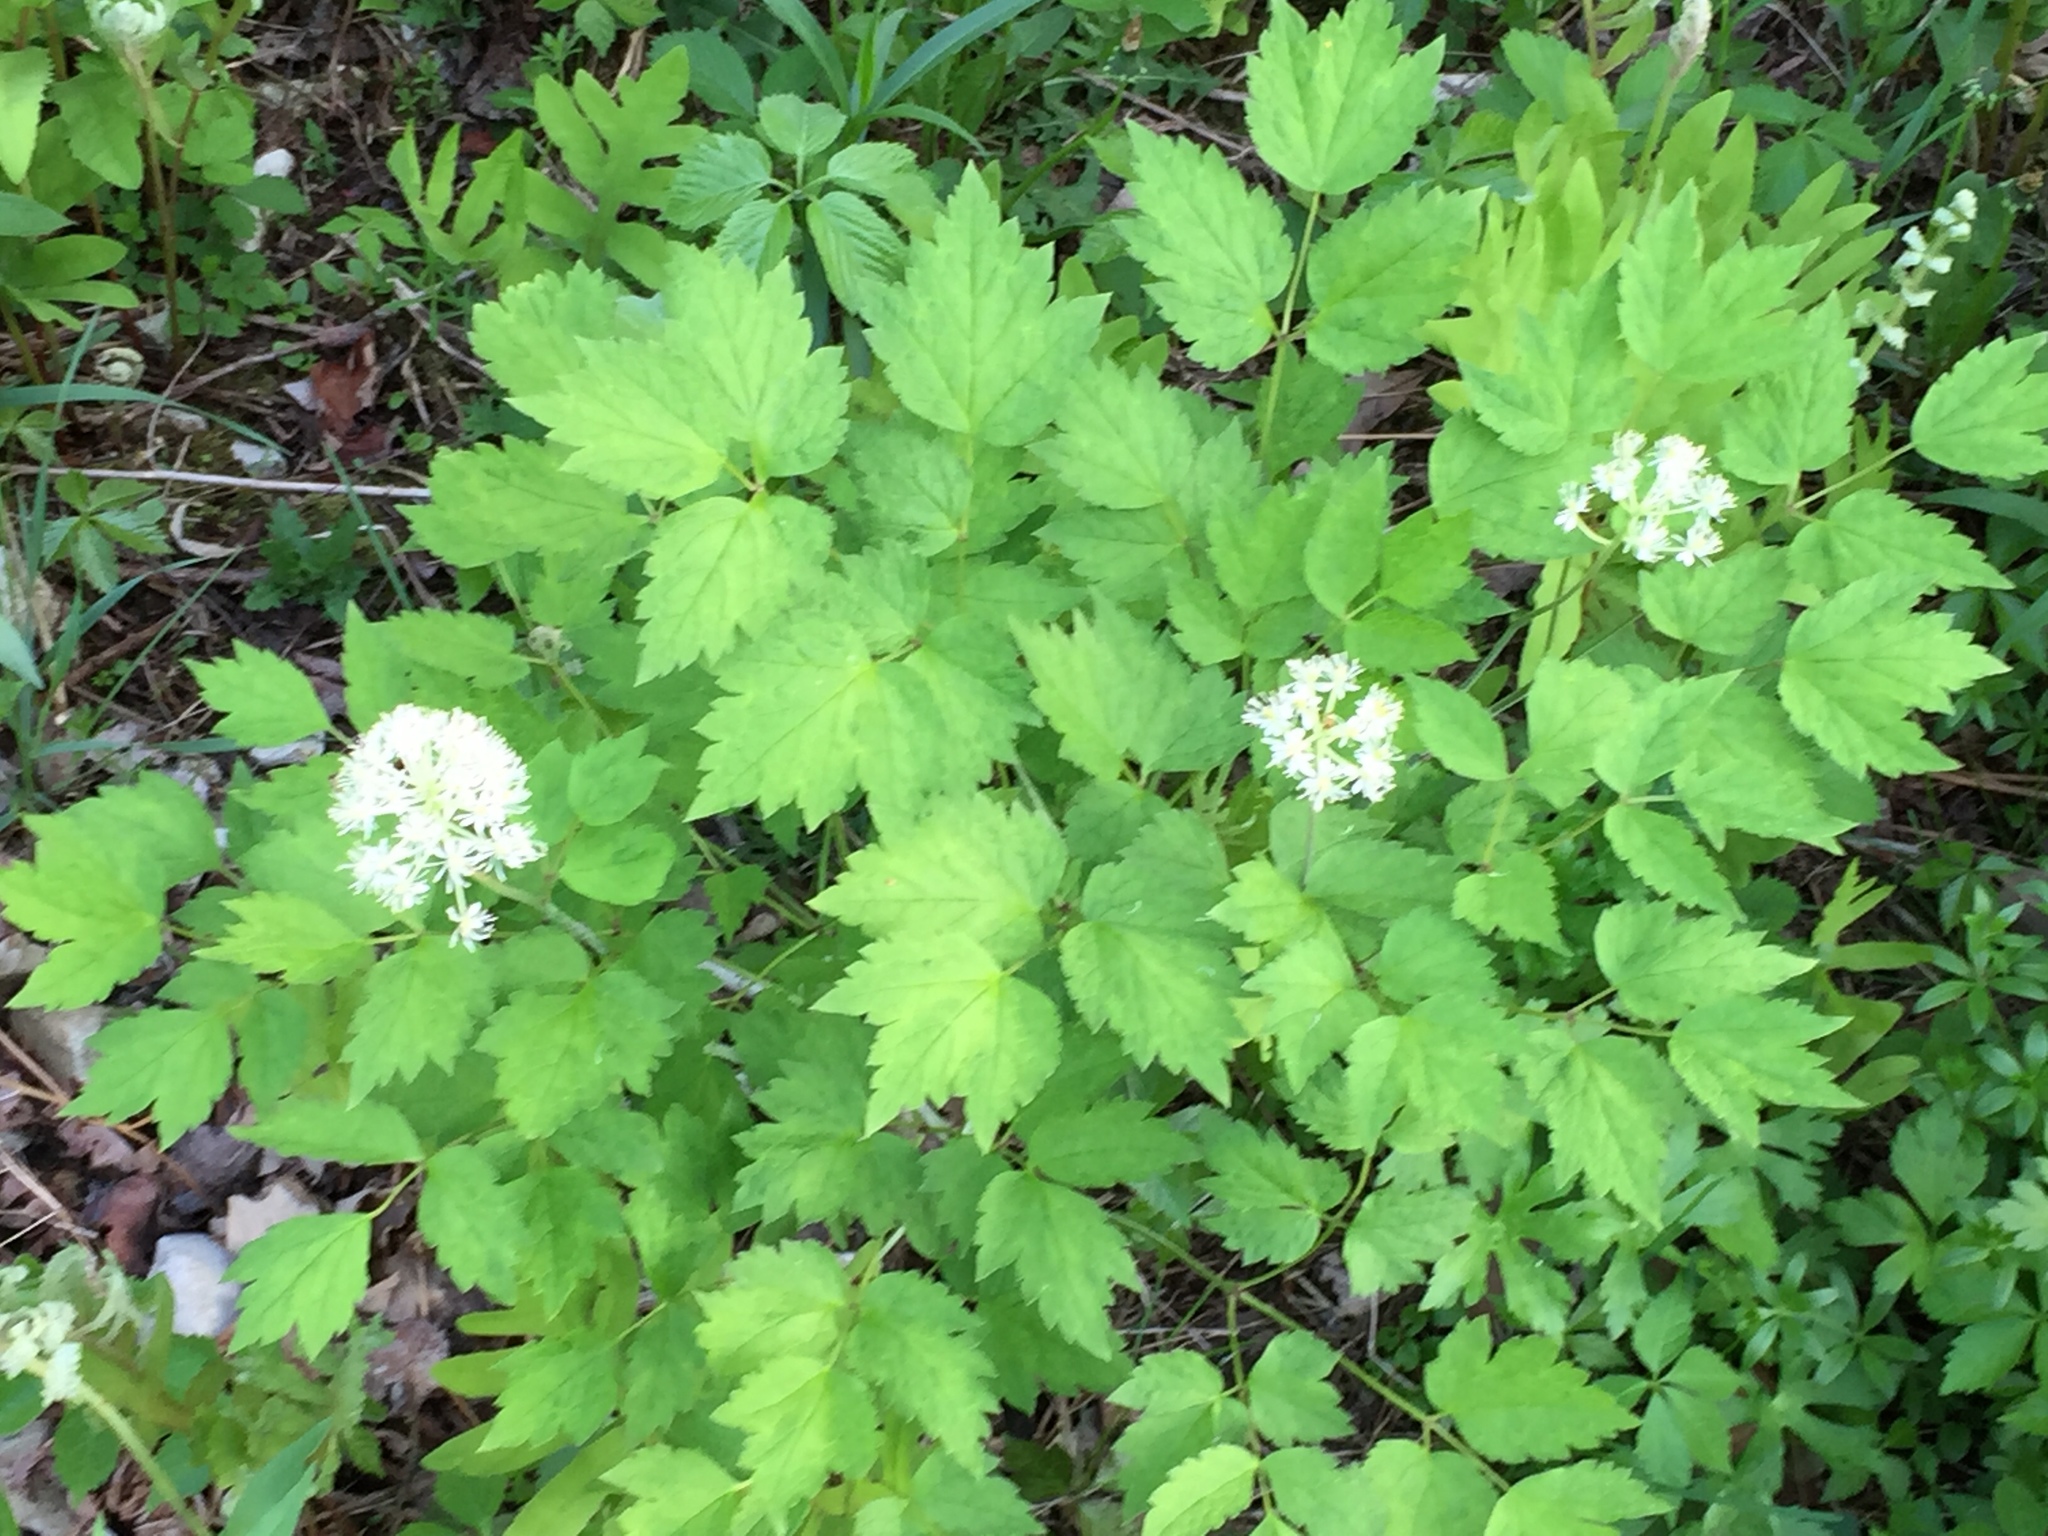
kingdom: Plantae
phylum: Tracheophyta
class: Magnoliopsida
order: Ranunculales
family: Ranunculaceae
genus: Actaea
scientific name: Actaea rubra
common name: Red baneberry
